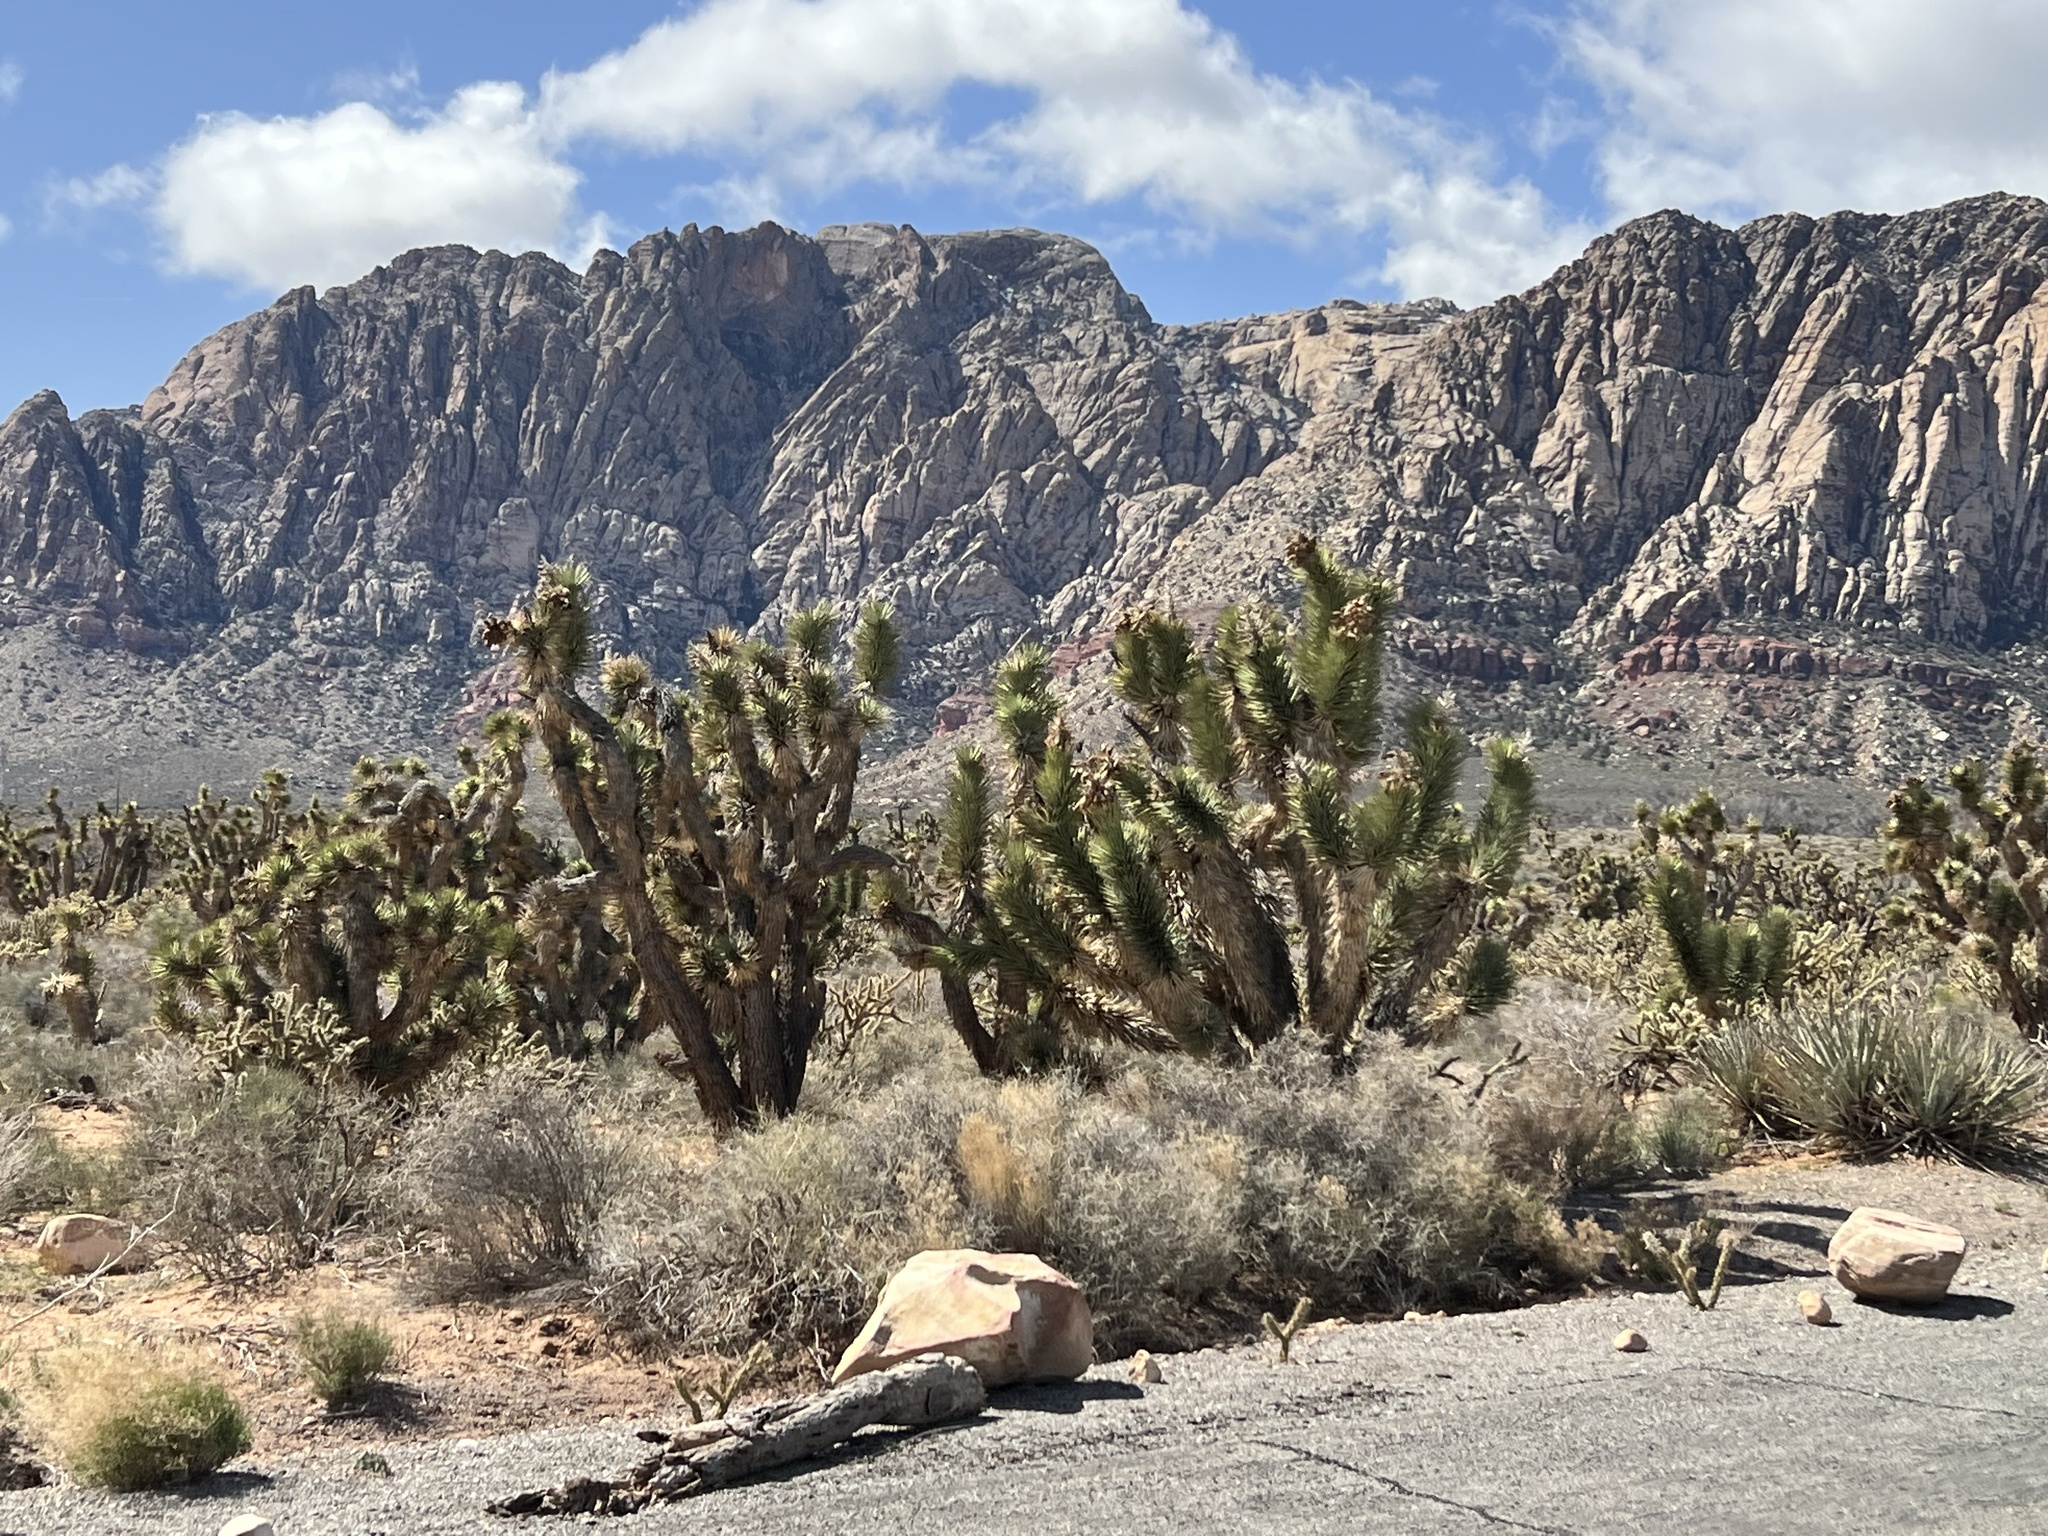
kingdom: Plantae
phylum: Tracheophyta
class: Liliopsida
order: Asparagales
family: Asparagaceae
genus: Yucca
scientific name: Yucca brevifolia
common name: Joshua tree
